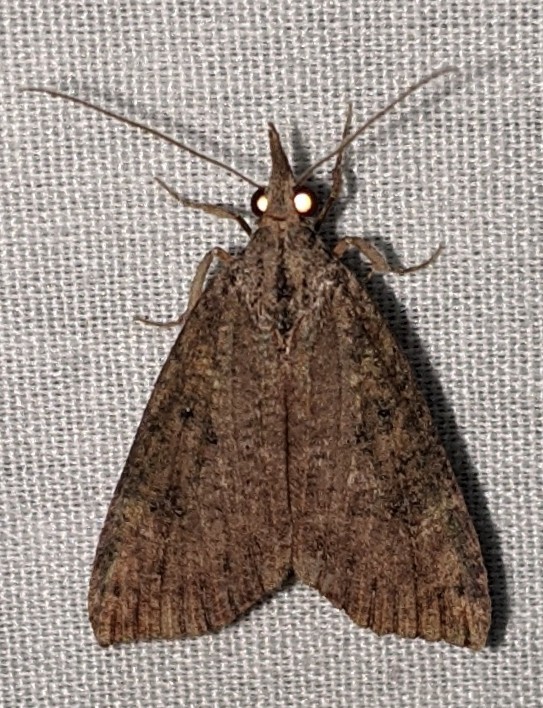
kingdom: Animalia
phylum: Arthropoda
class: Insecta
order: Lepidoptera
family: Erebidae
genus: Hypena
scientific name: Hypena humuli
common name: Hop vine snout
